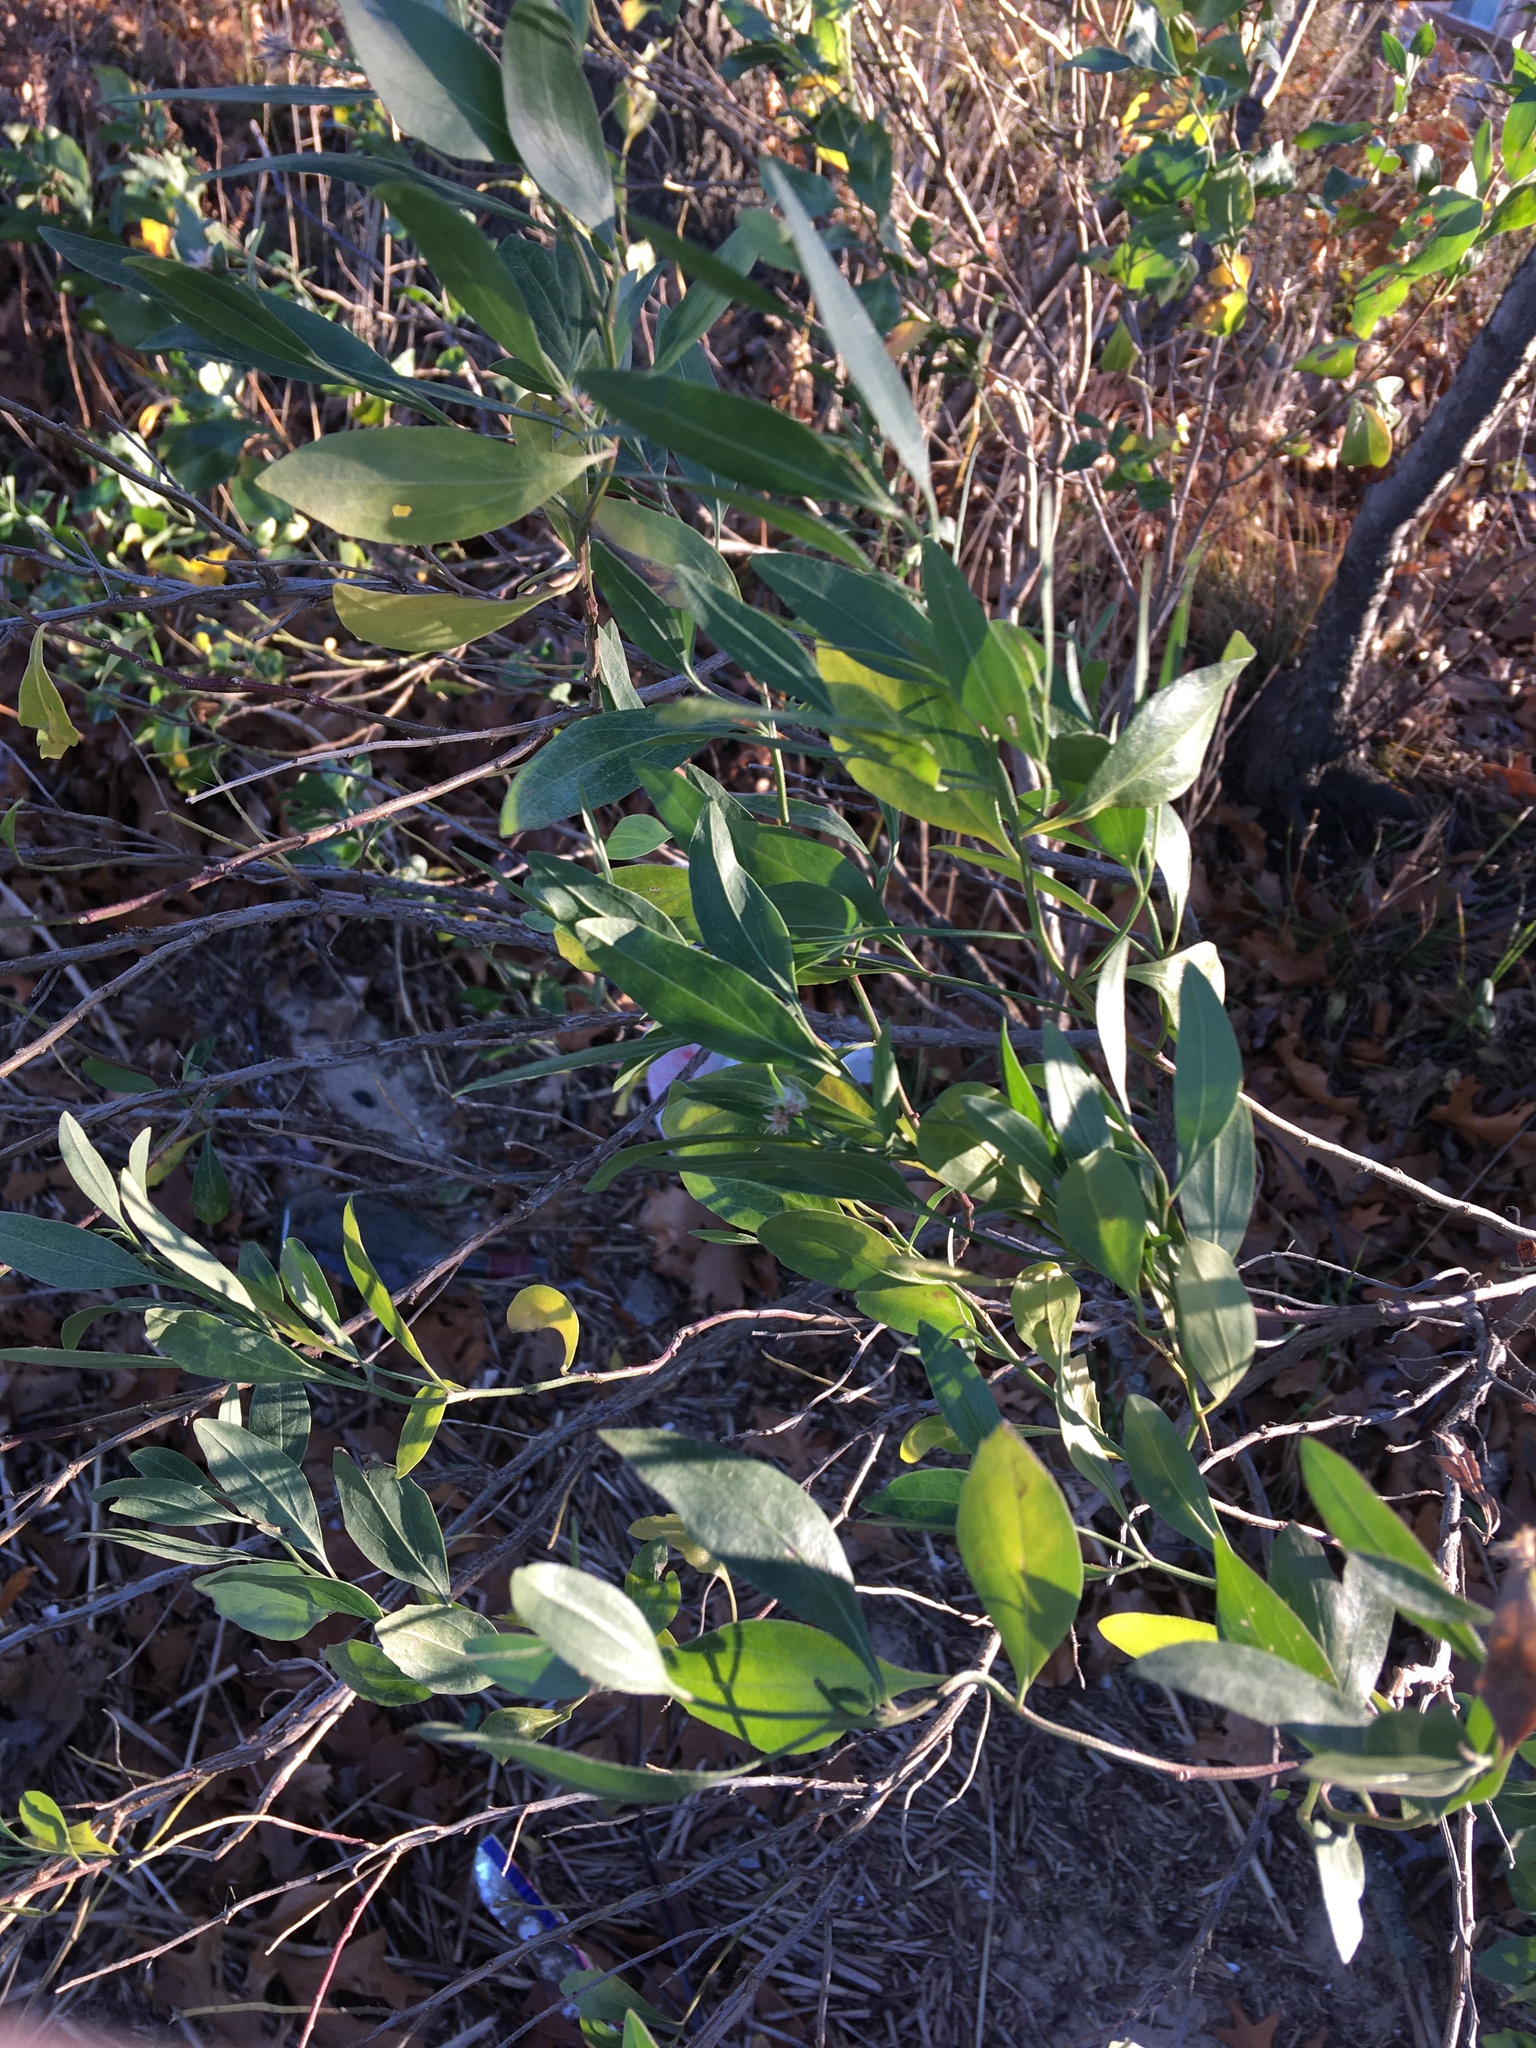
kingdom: Plantae
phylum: Tracheophyta
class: Magnoliopsida
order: Asterales
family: Asteraceae
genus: Baccharis
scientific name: Baccharis halimifolia
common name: Eastern baccharis
